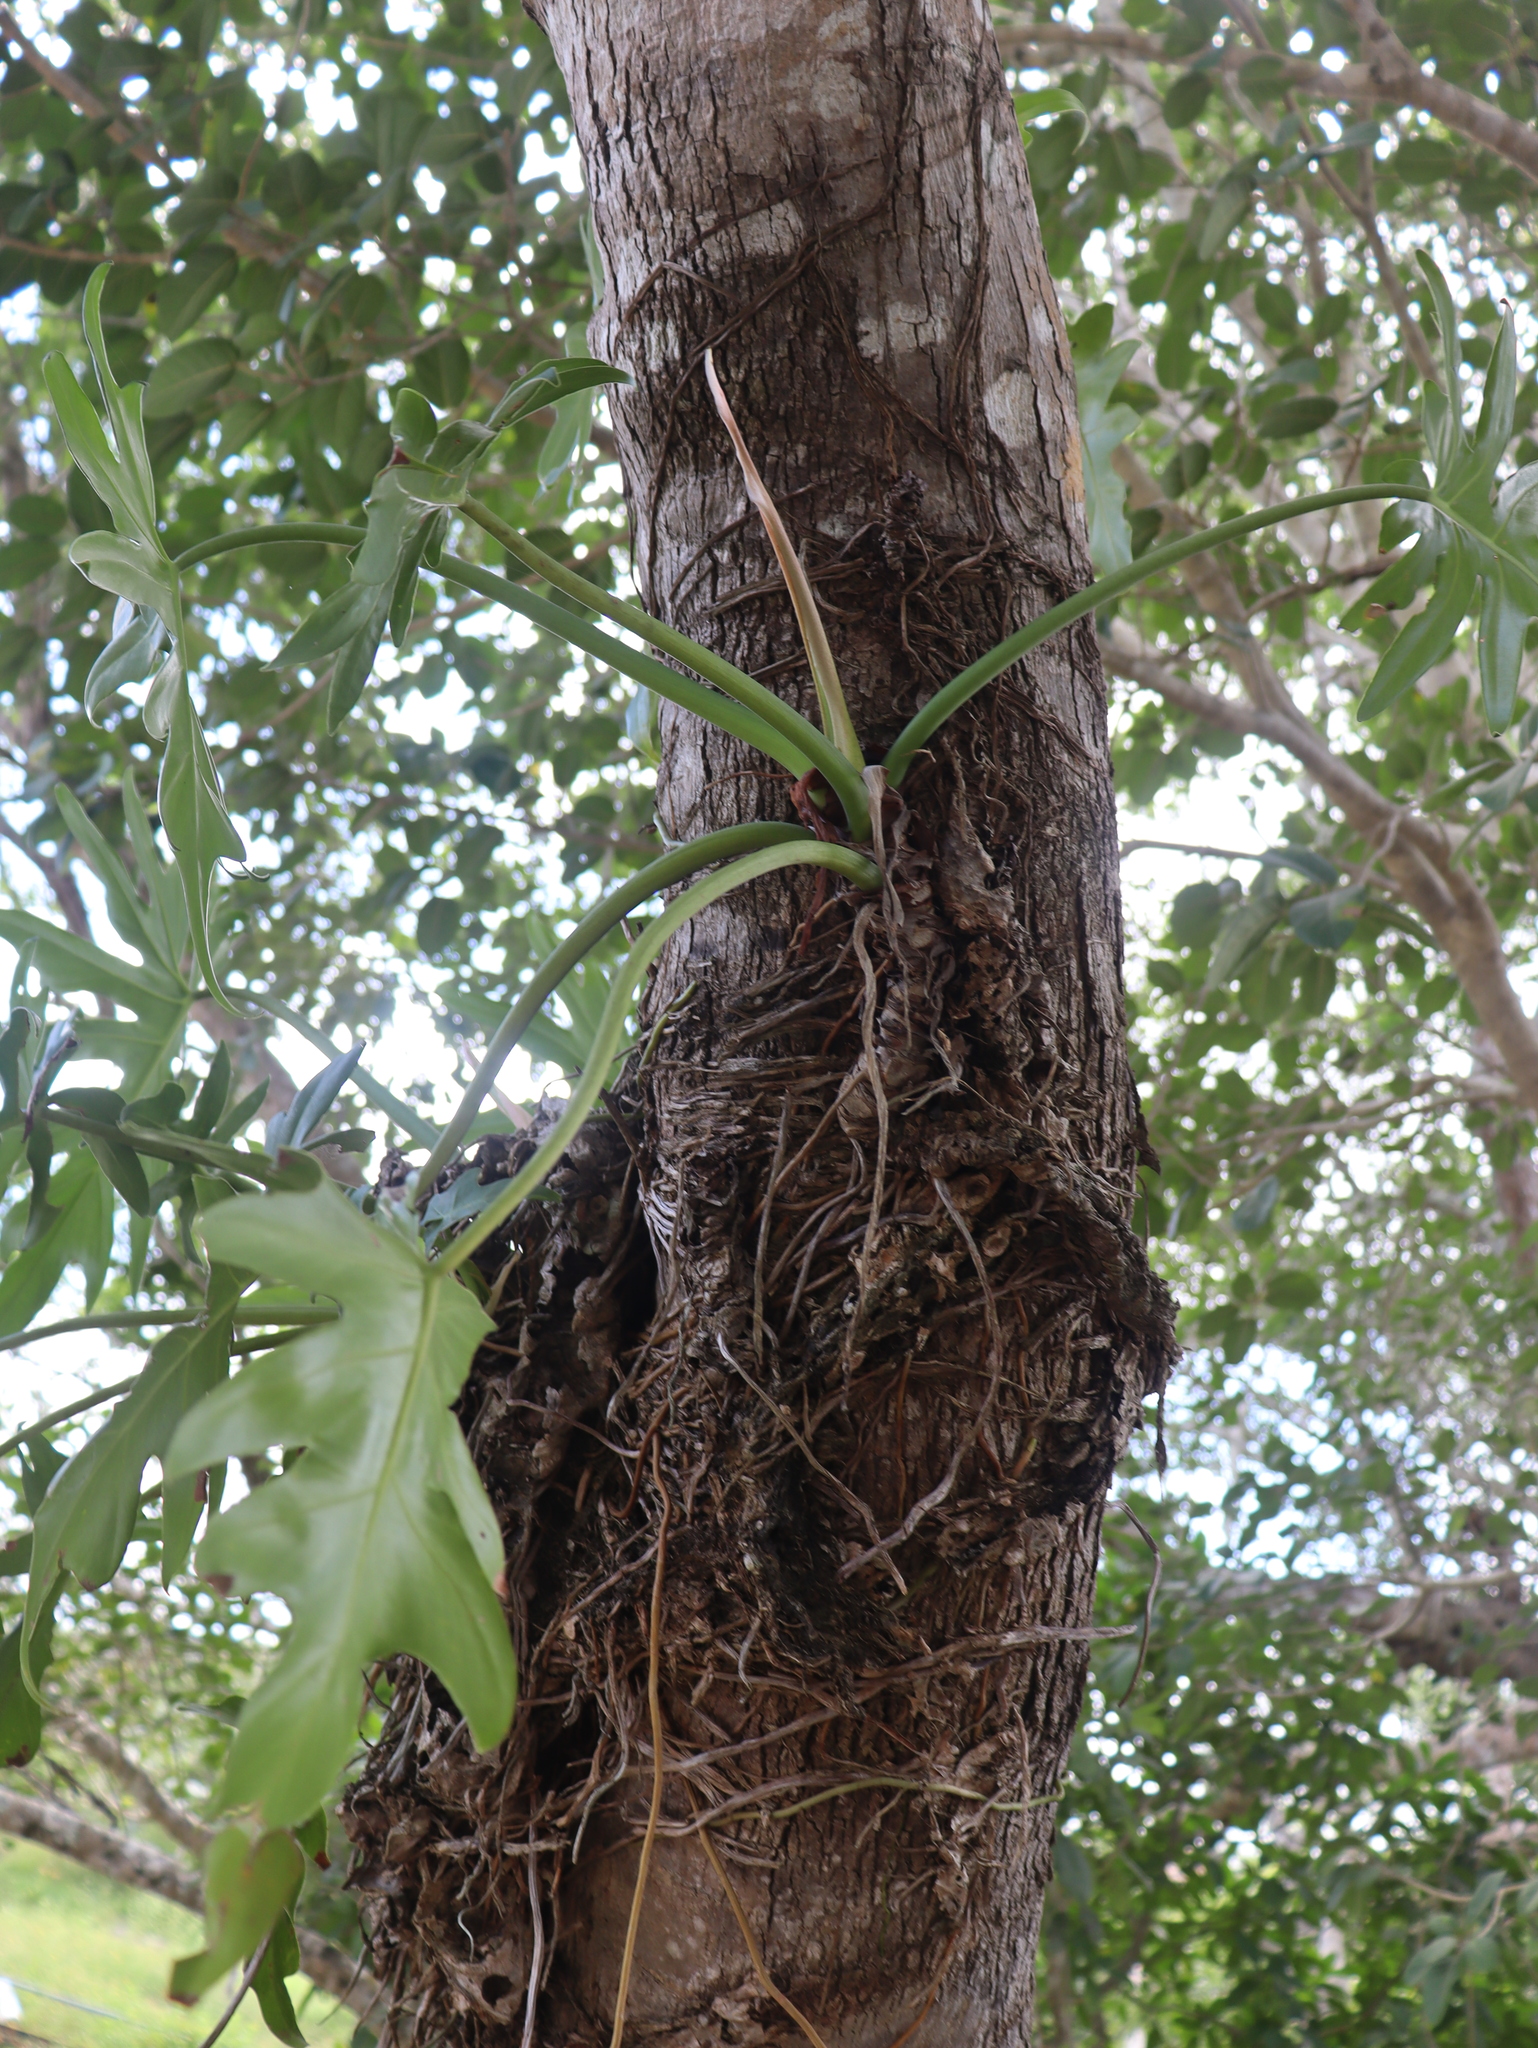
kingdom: Plantae
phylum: Tracheophyta
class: Liliopsida
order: Alismatales
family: Araceae
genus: Philodendron
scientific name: Philodendron radiatum
